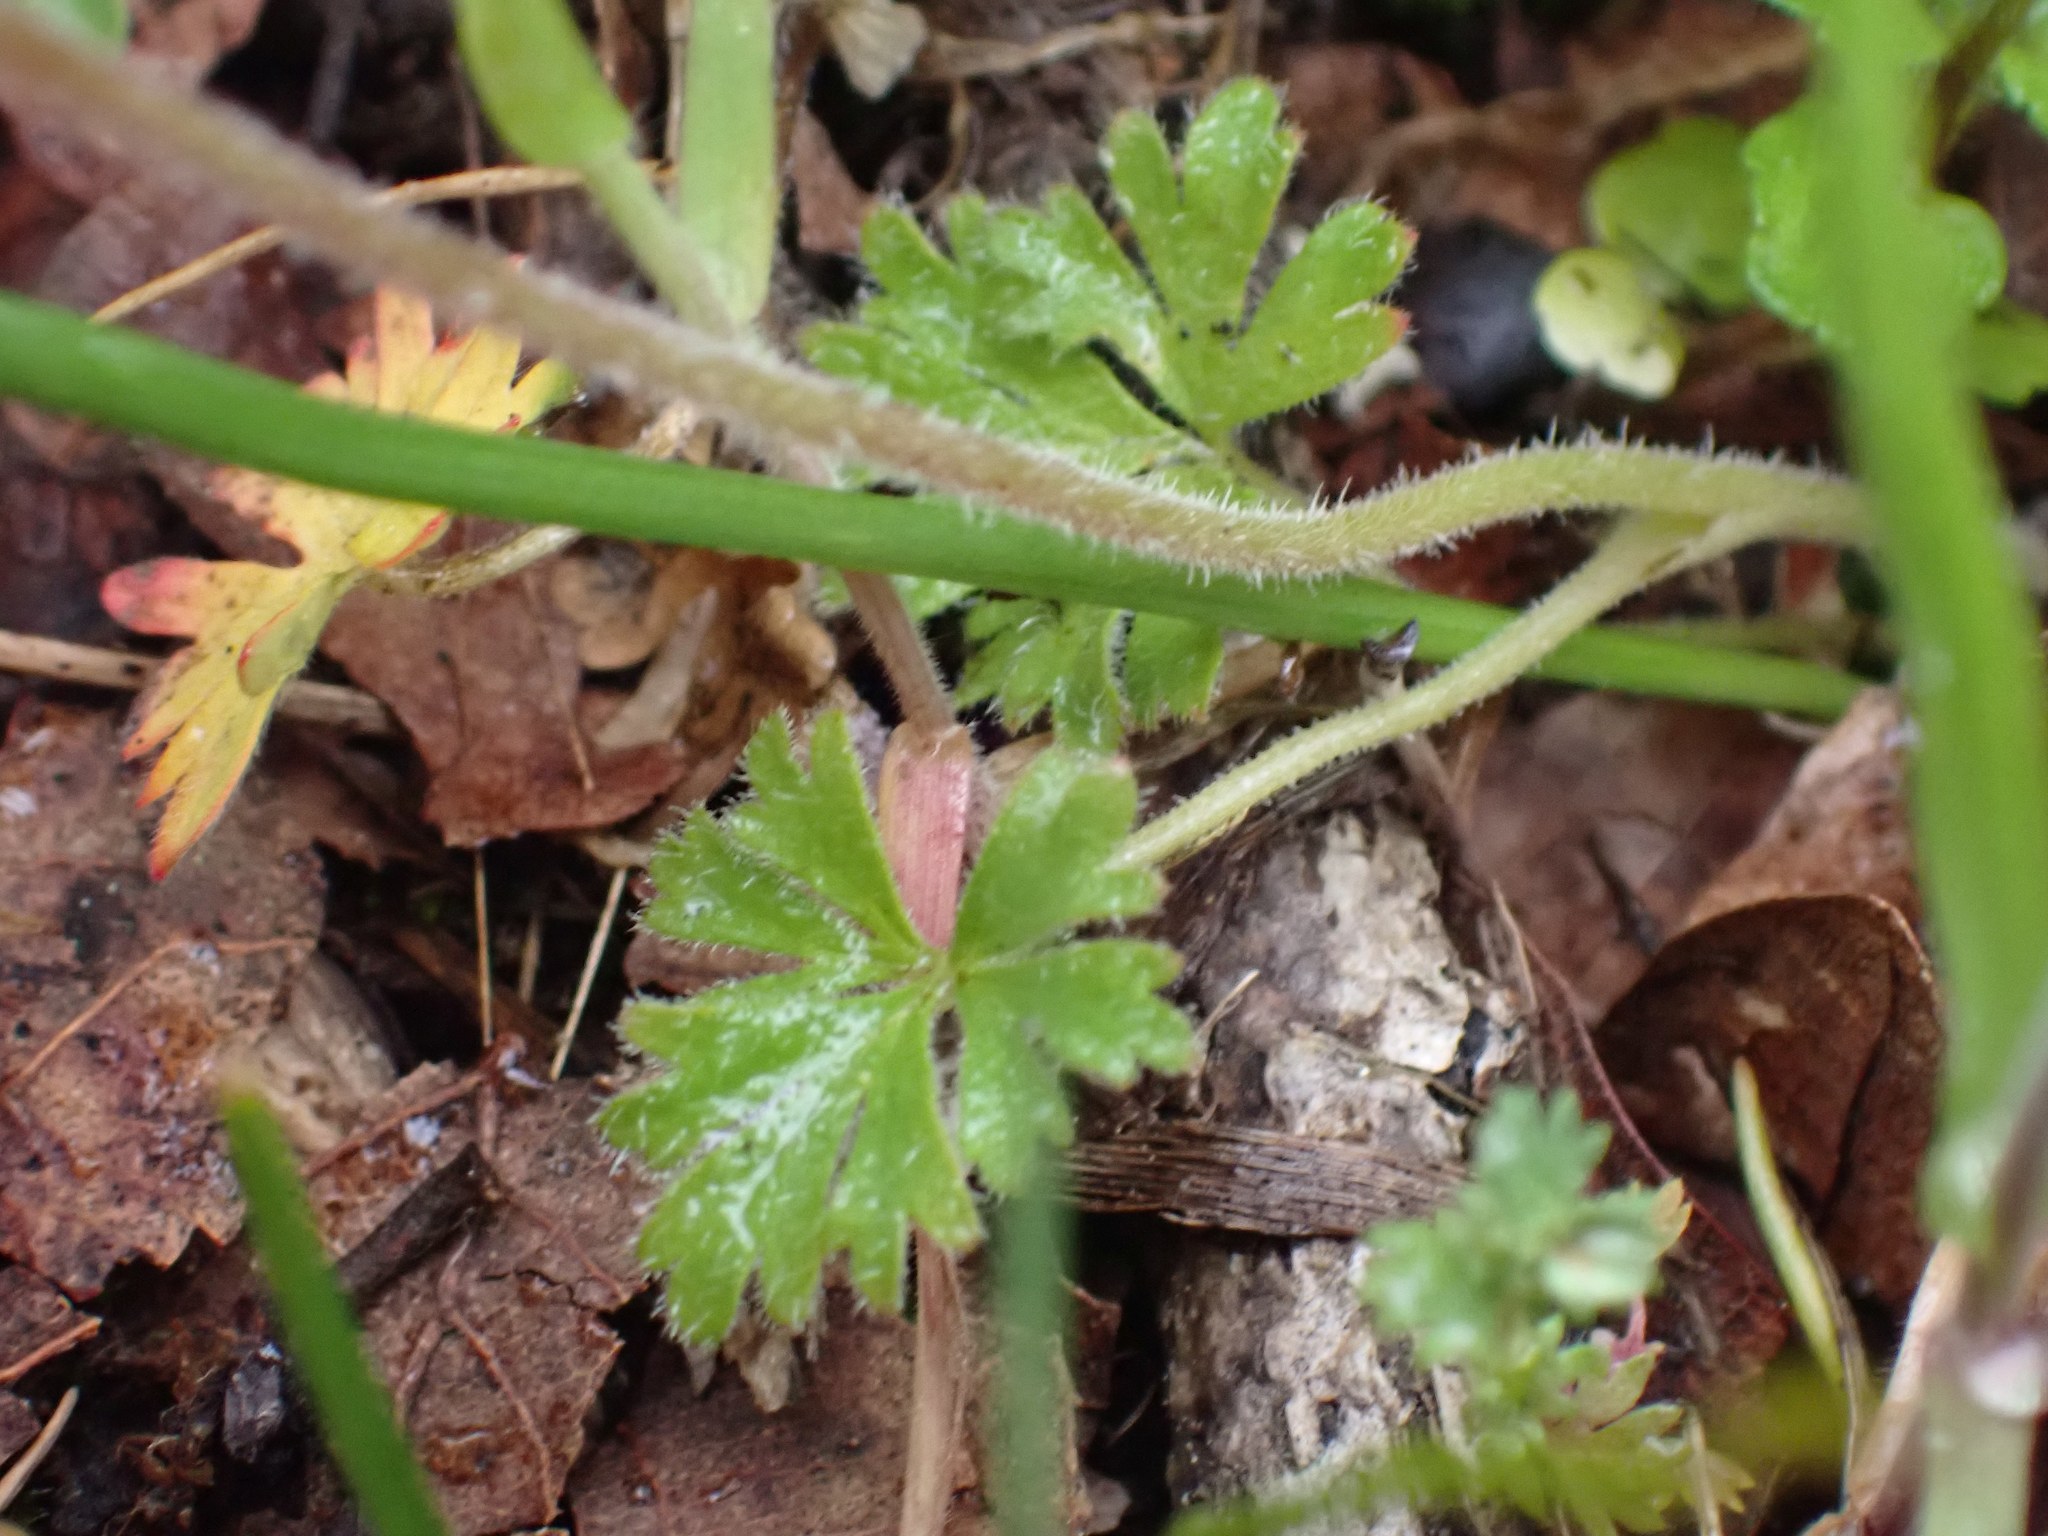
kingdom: Plantae
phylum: Tracheophyta
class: Magnoliopsida
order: Saxifragales
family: Saxifragaceae
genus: Lithophragma
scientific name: Lithophragma parviflorum
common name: Small-flowered fringe-cup
